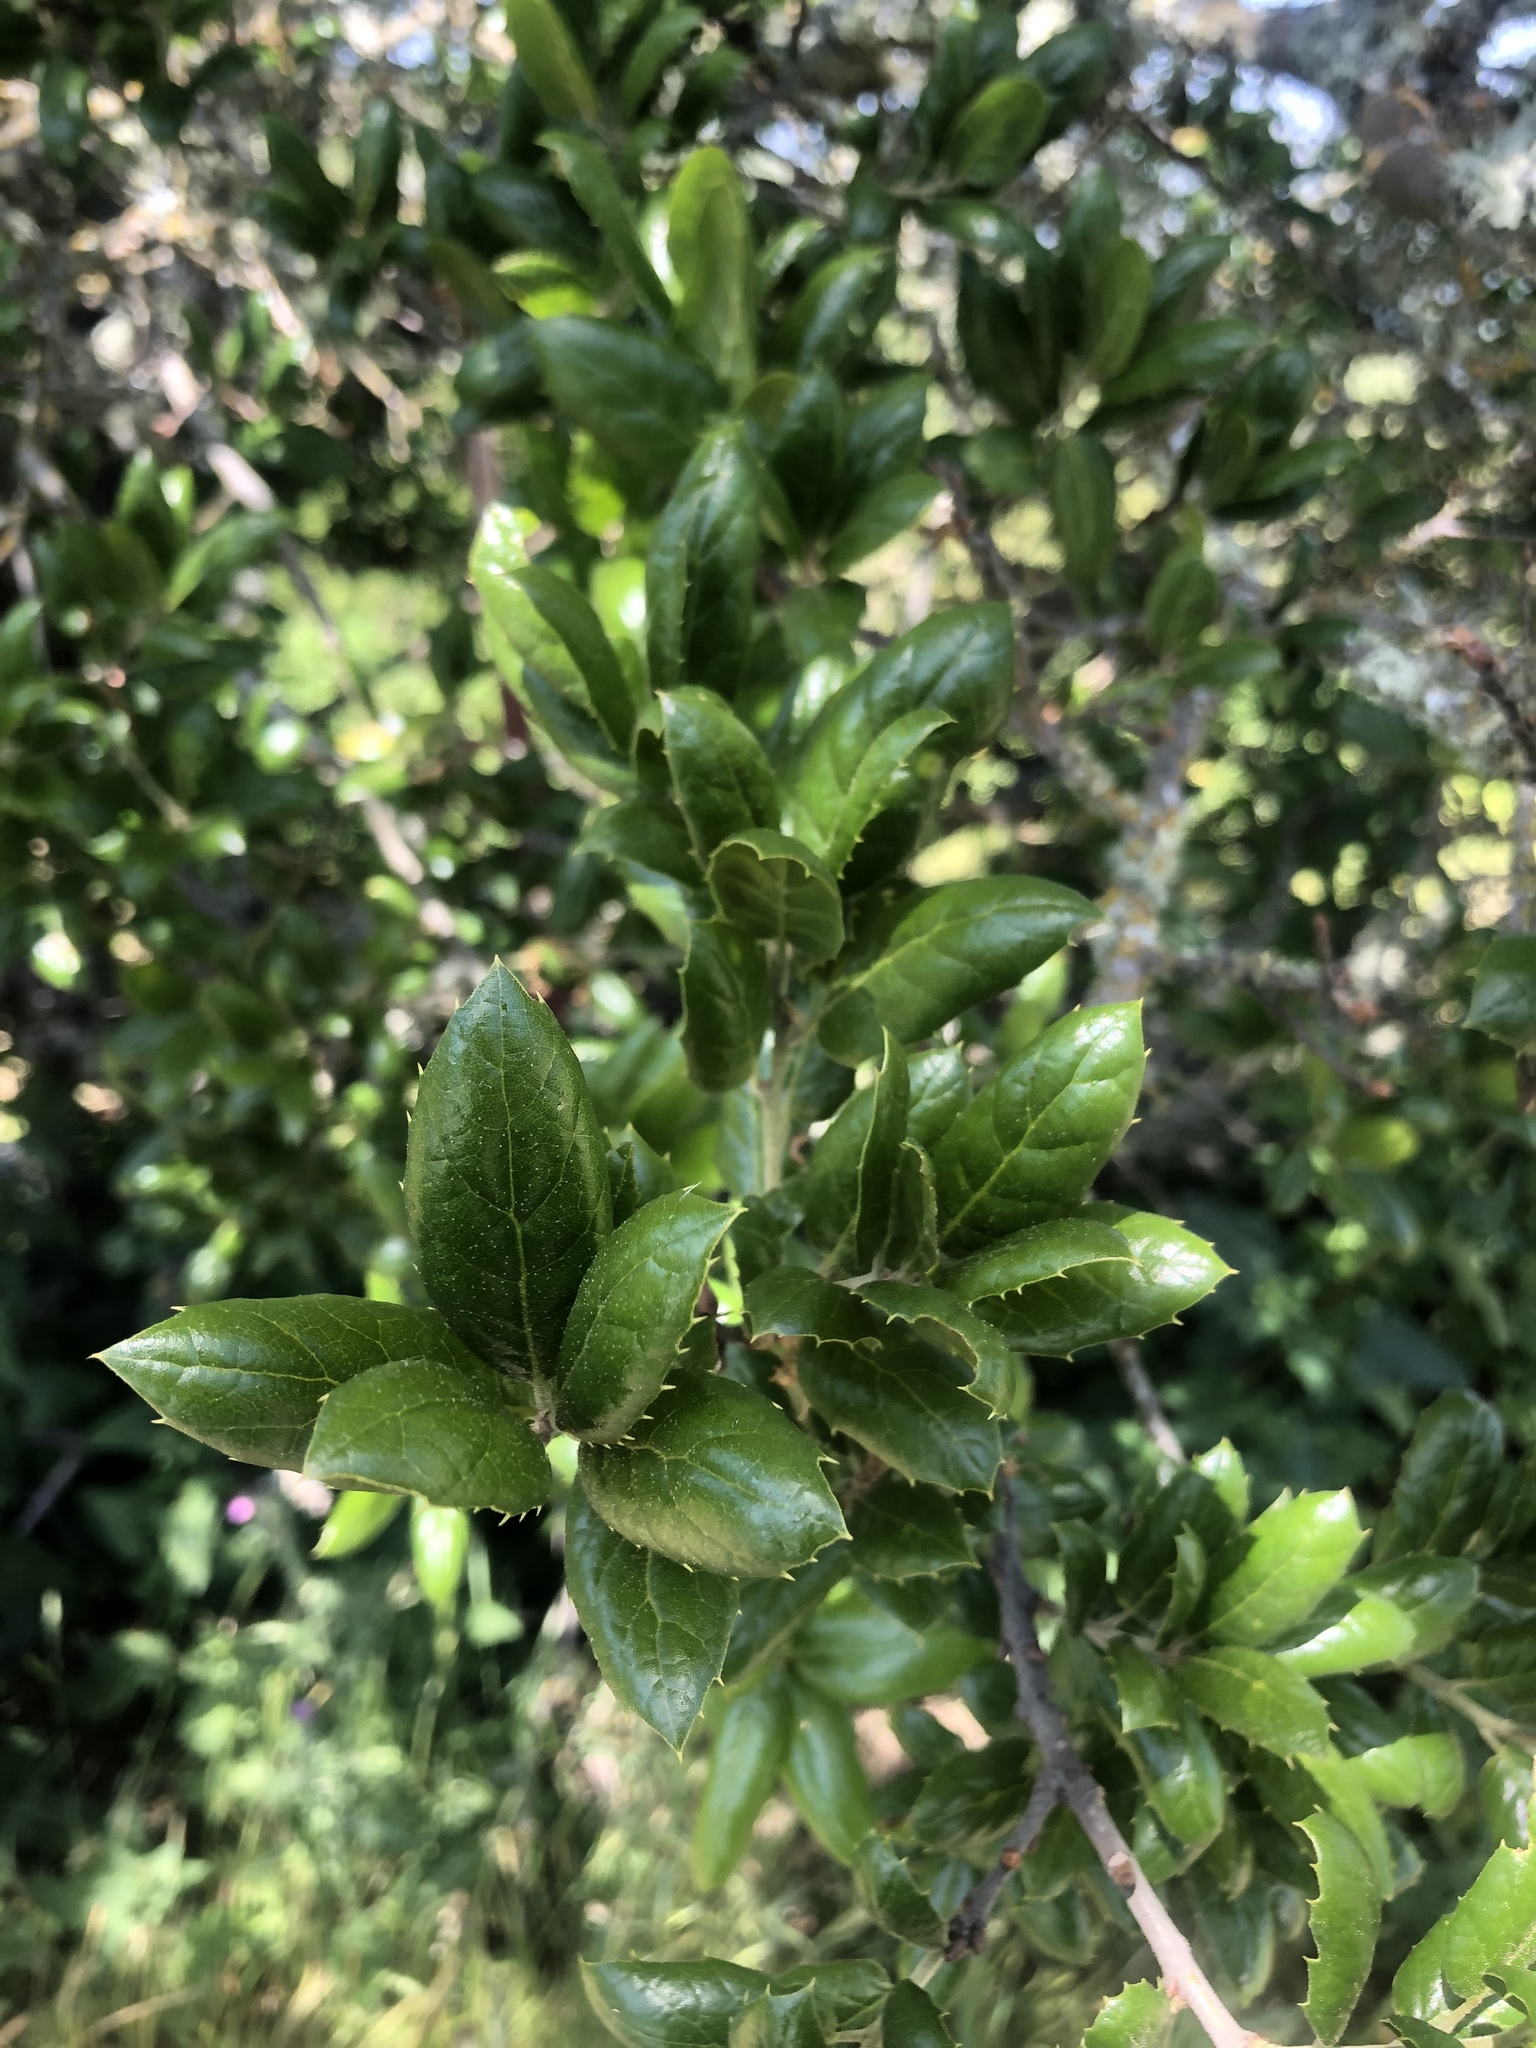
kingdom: Plantae
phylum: Tracheophyta
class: Magnoliopsida
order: Fagales
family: Fagaceae
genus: Quercus
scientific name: Quercus agrifolia
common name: California live oak
